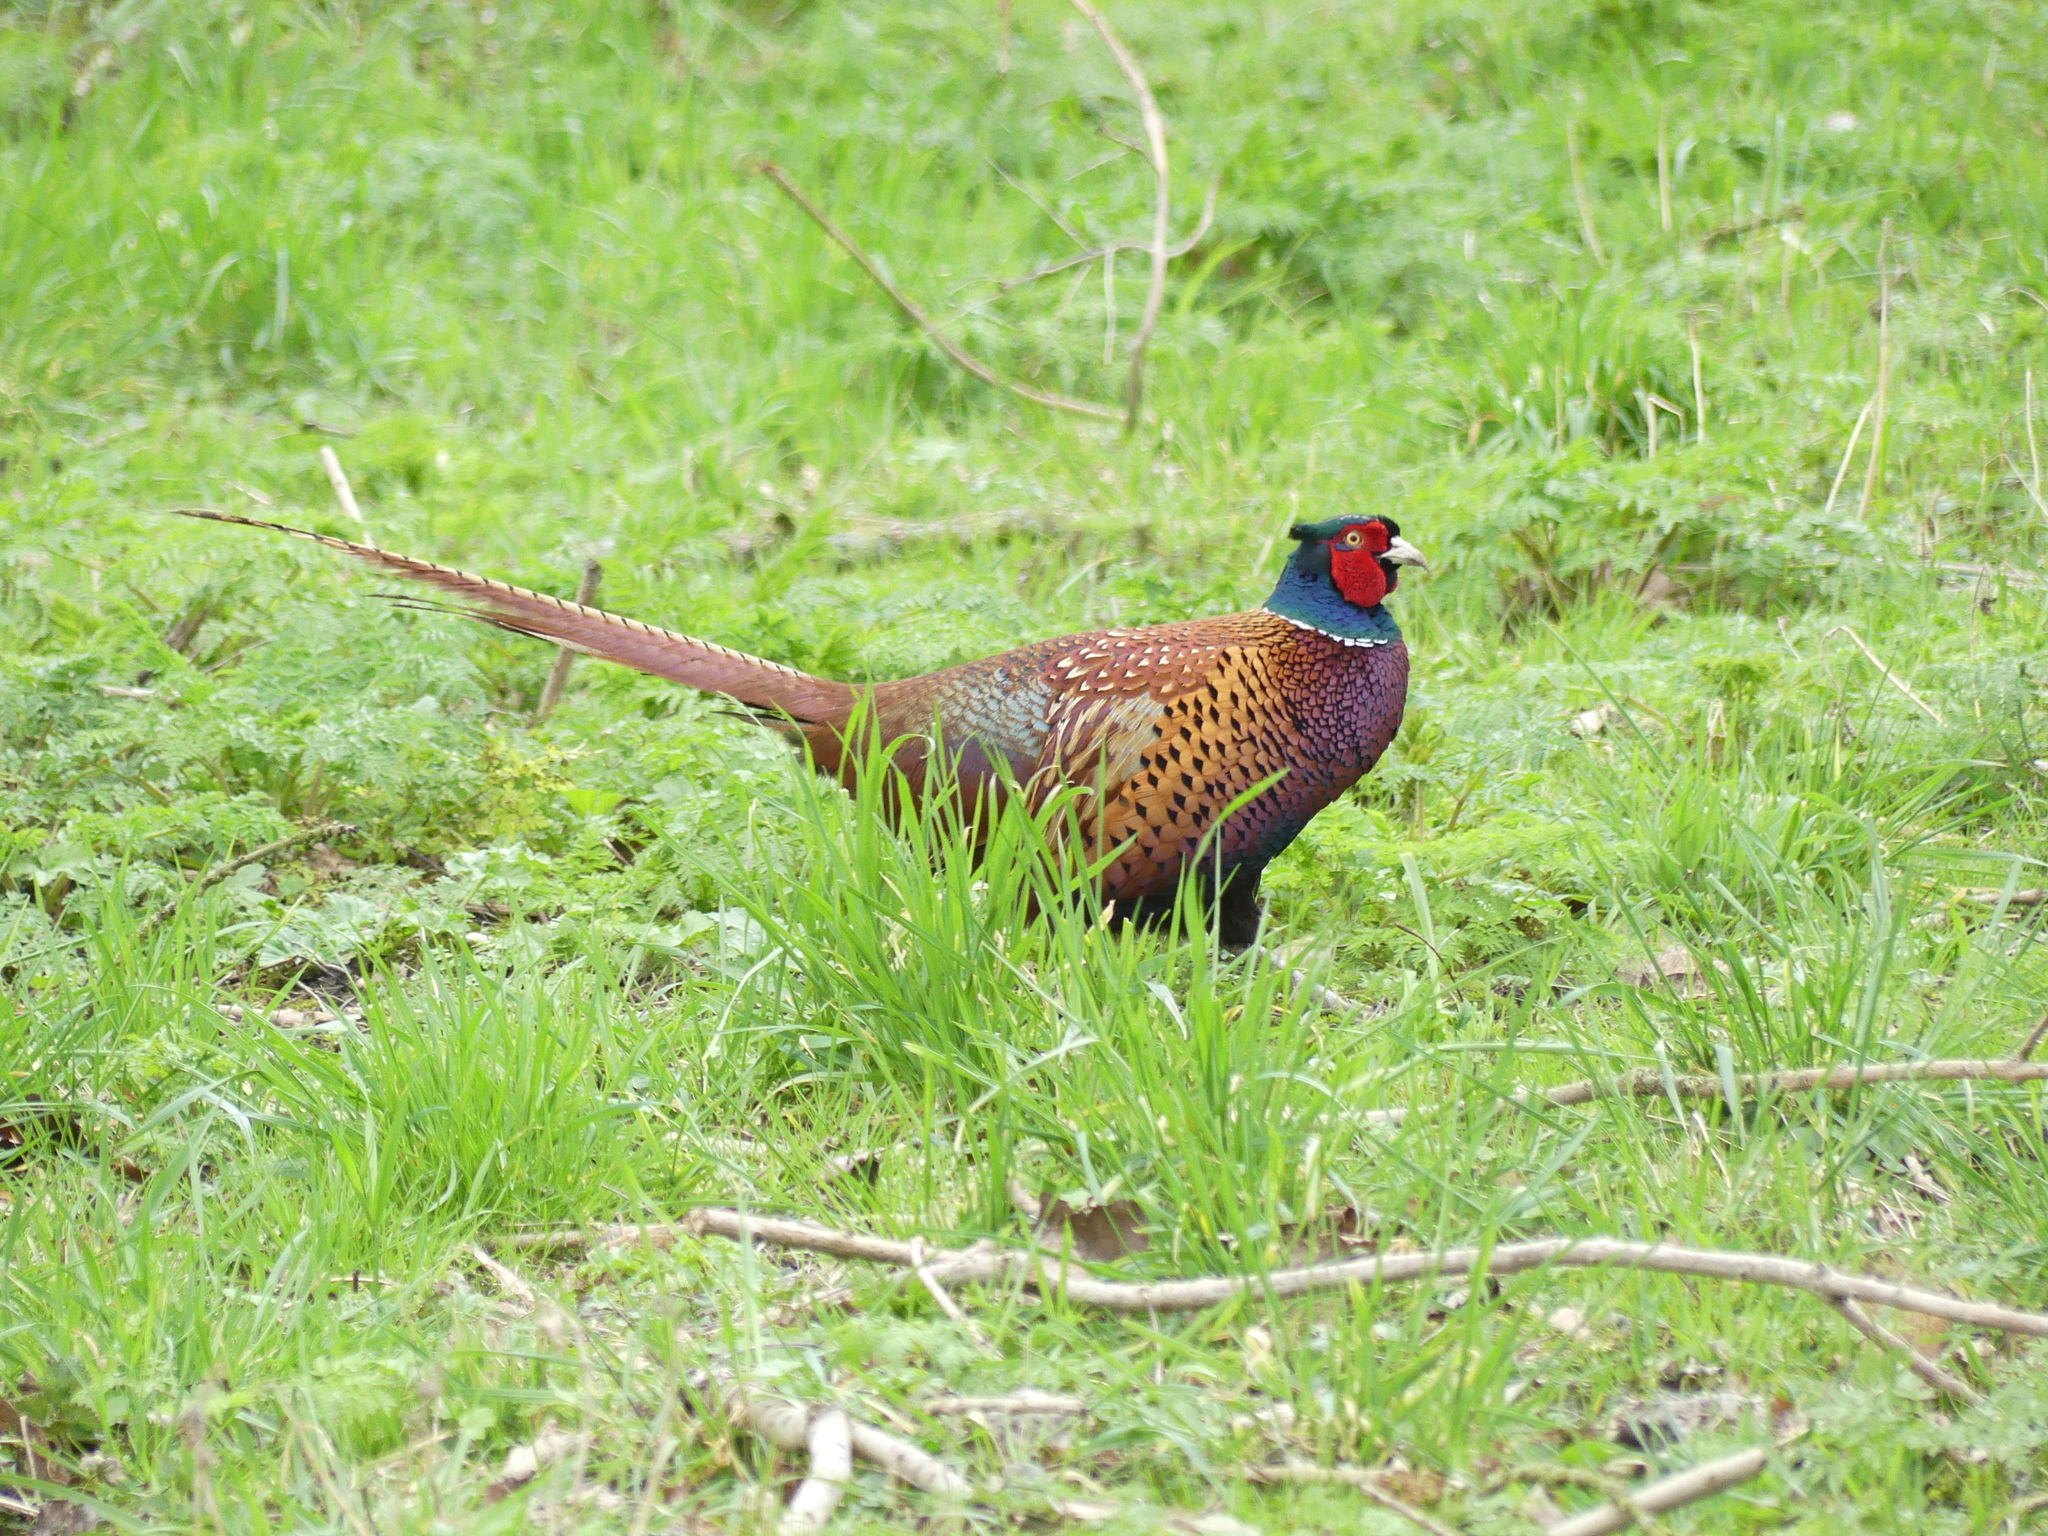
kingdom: Animalia
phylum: Chordata
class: Aves
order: Galliformes
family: Phasianidae
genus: Phasianus
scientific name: Phasianus colchicus
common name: Common pheasant
